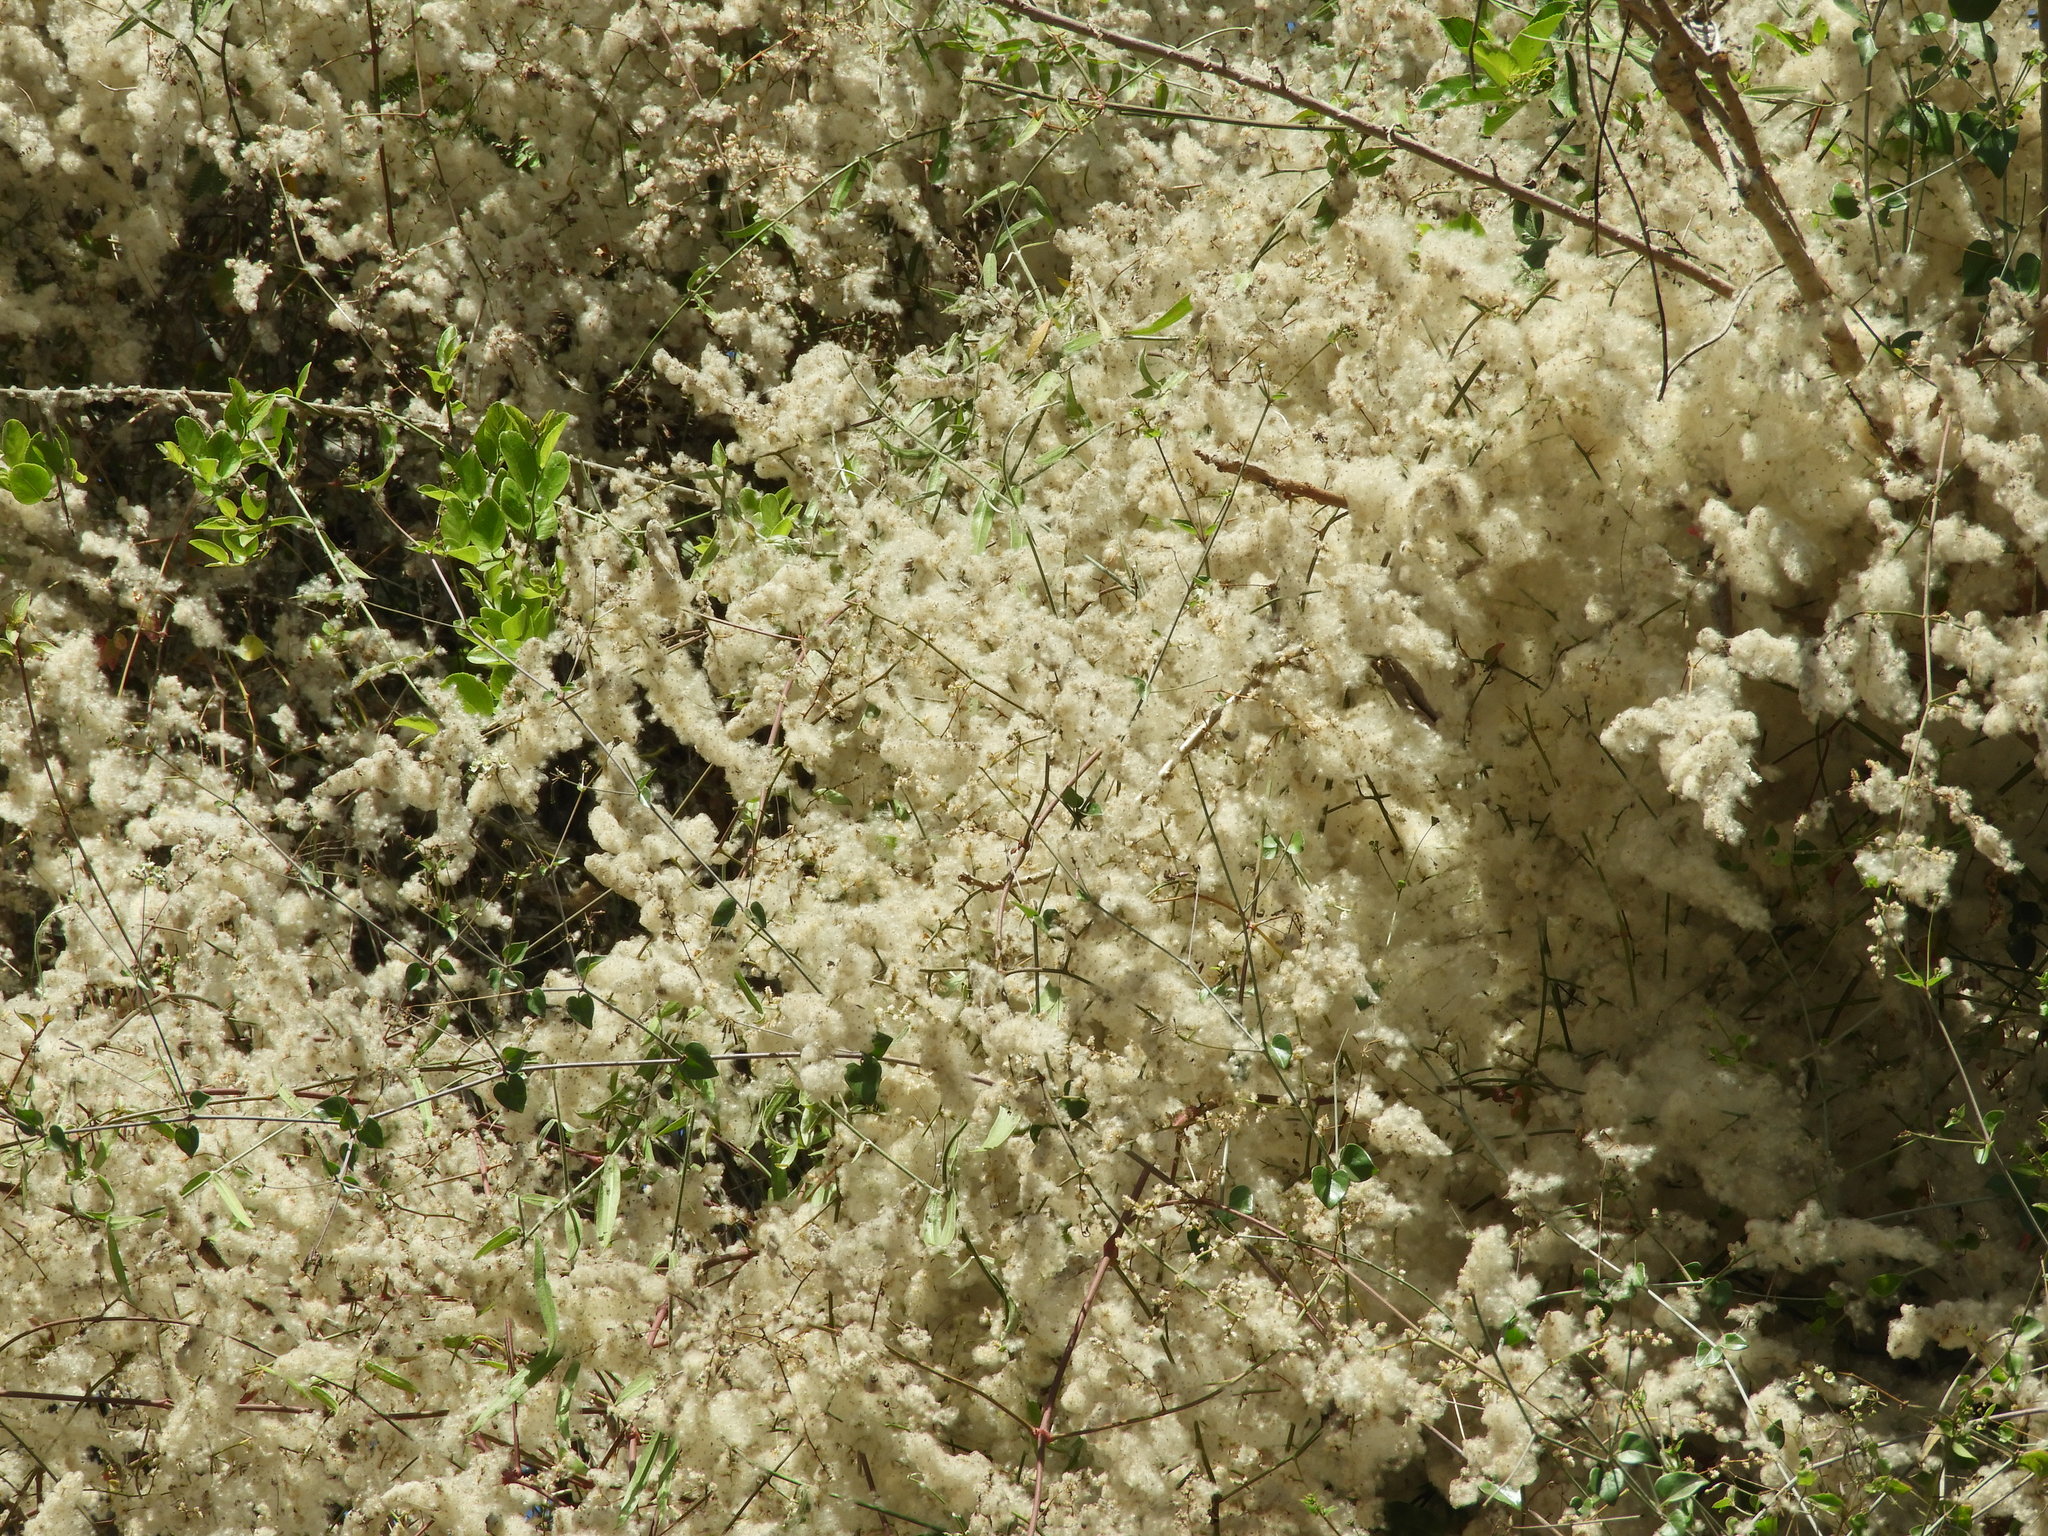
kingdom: Plantae
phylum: Tracheophyta
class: Magnoliopsida
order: Caryophyllales
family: Amaranthaceae
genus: Iresine
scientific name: Iresine diffusa
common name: Juba's-bush
